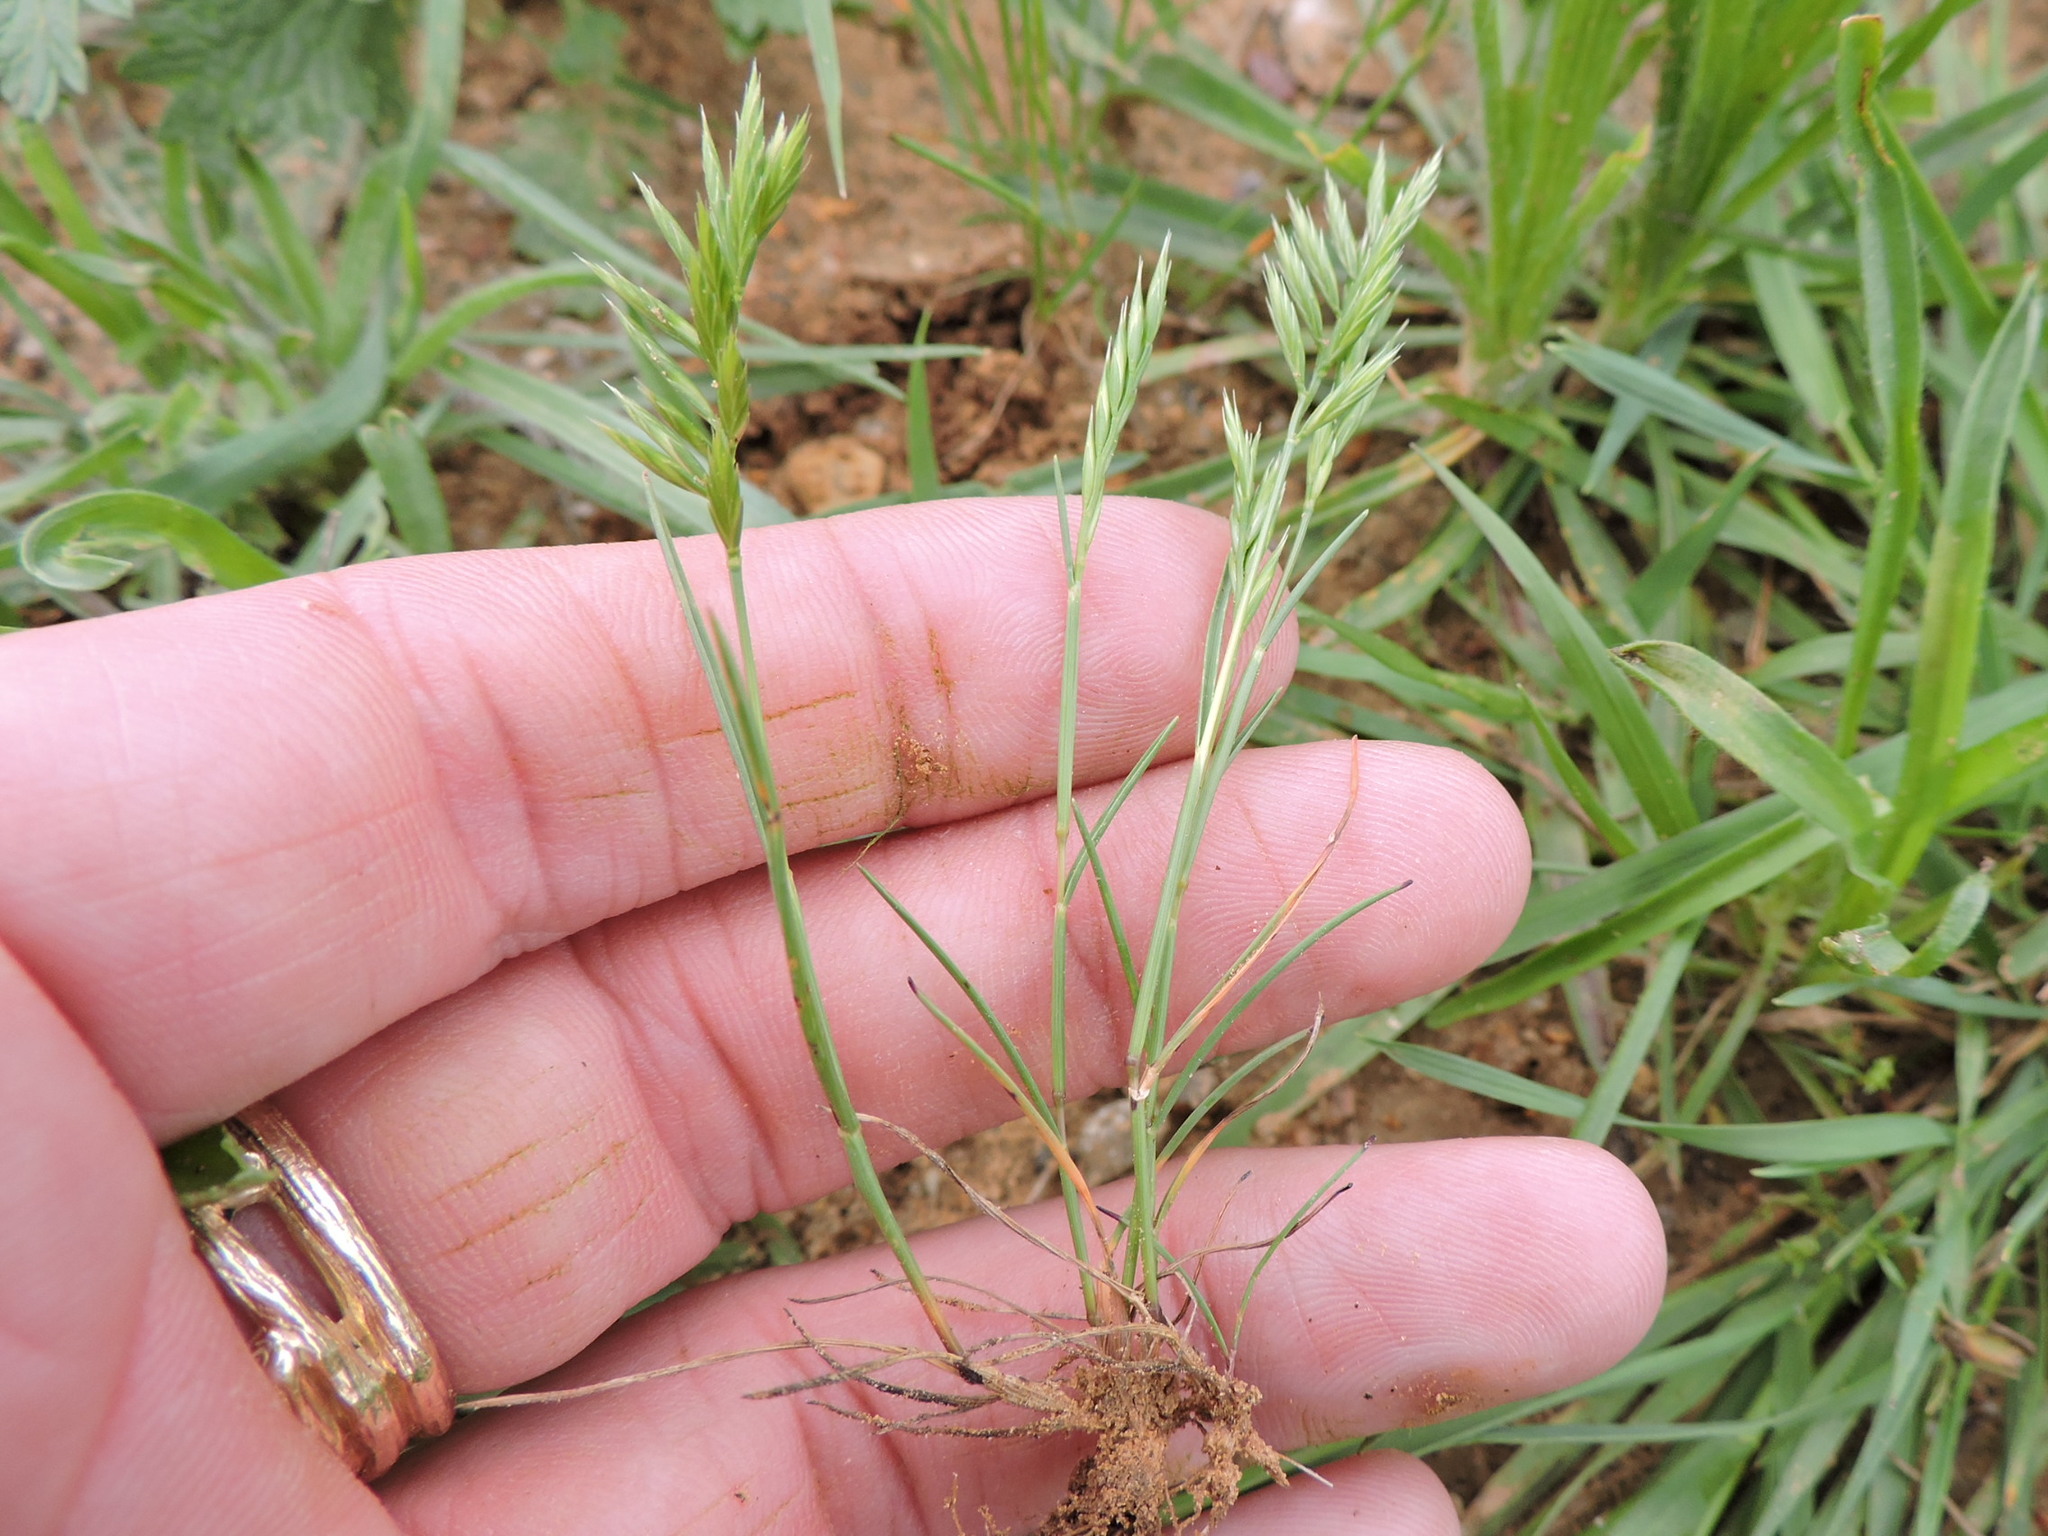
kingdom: Plantae
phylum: Tracheophyta
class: Liliopsida
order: Poales
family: Poaceae
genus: Festuca
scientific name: Festuca octoflora
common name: Sixweeks grass
